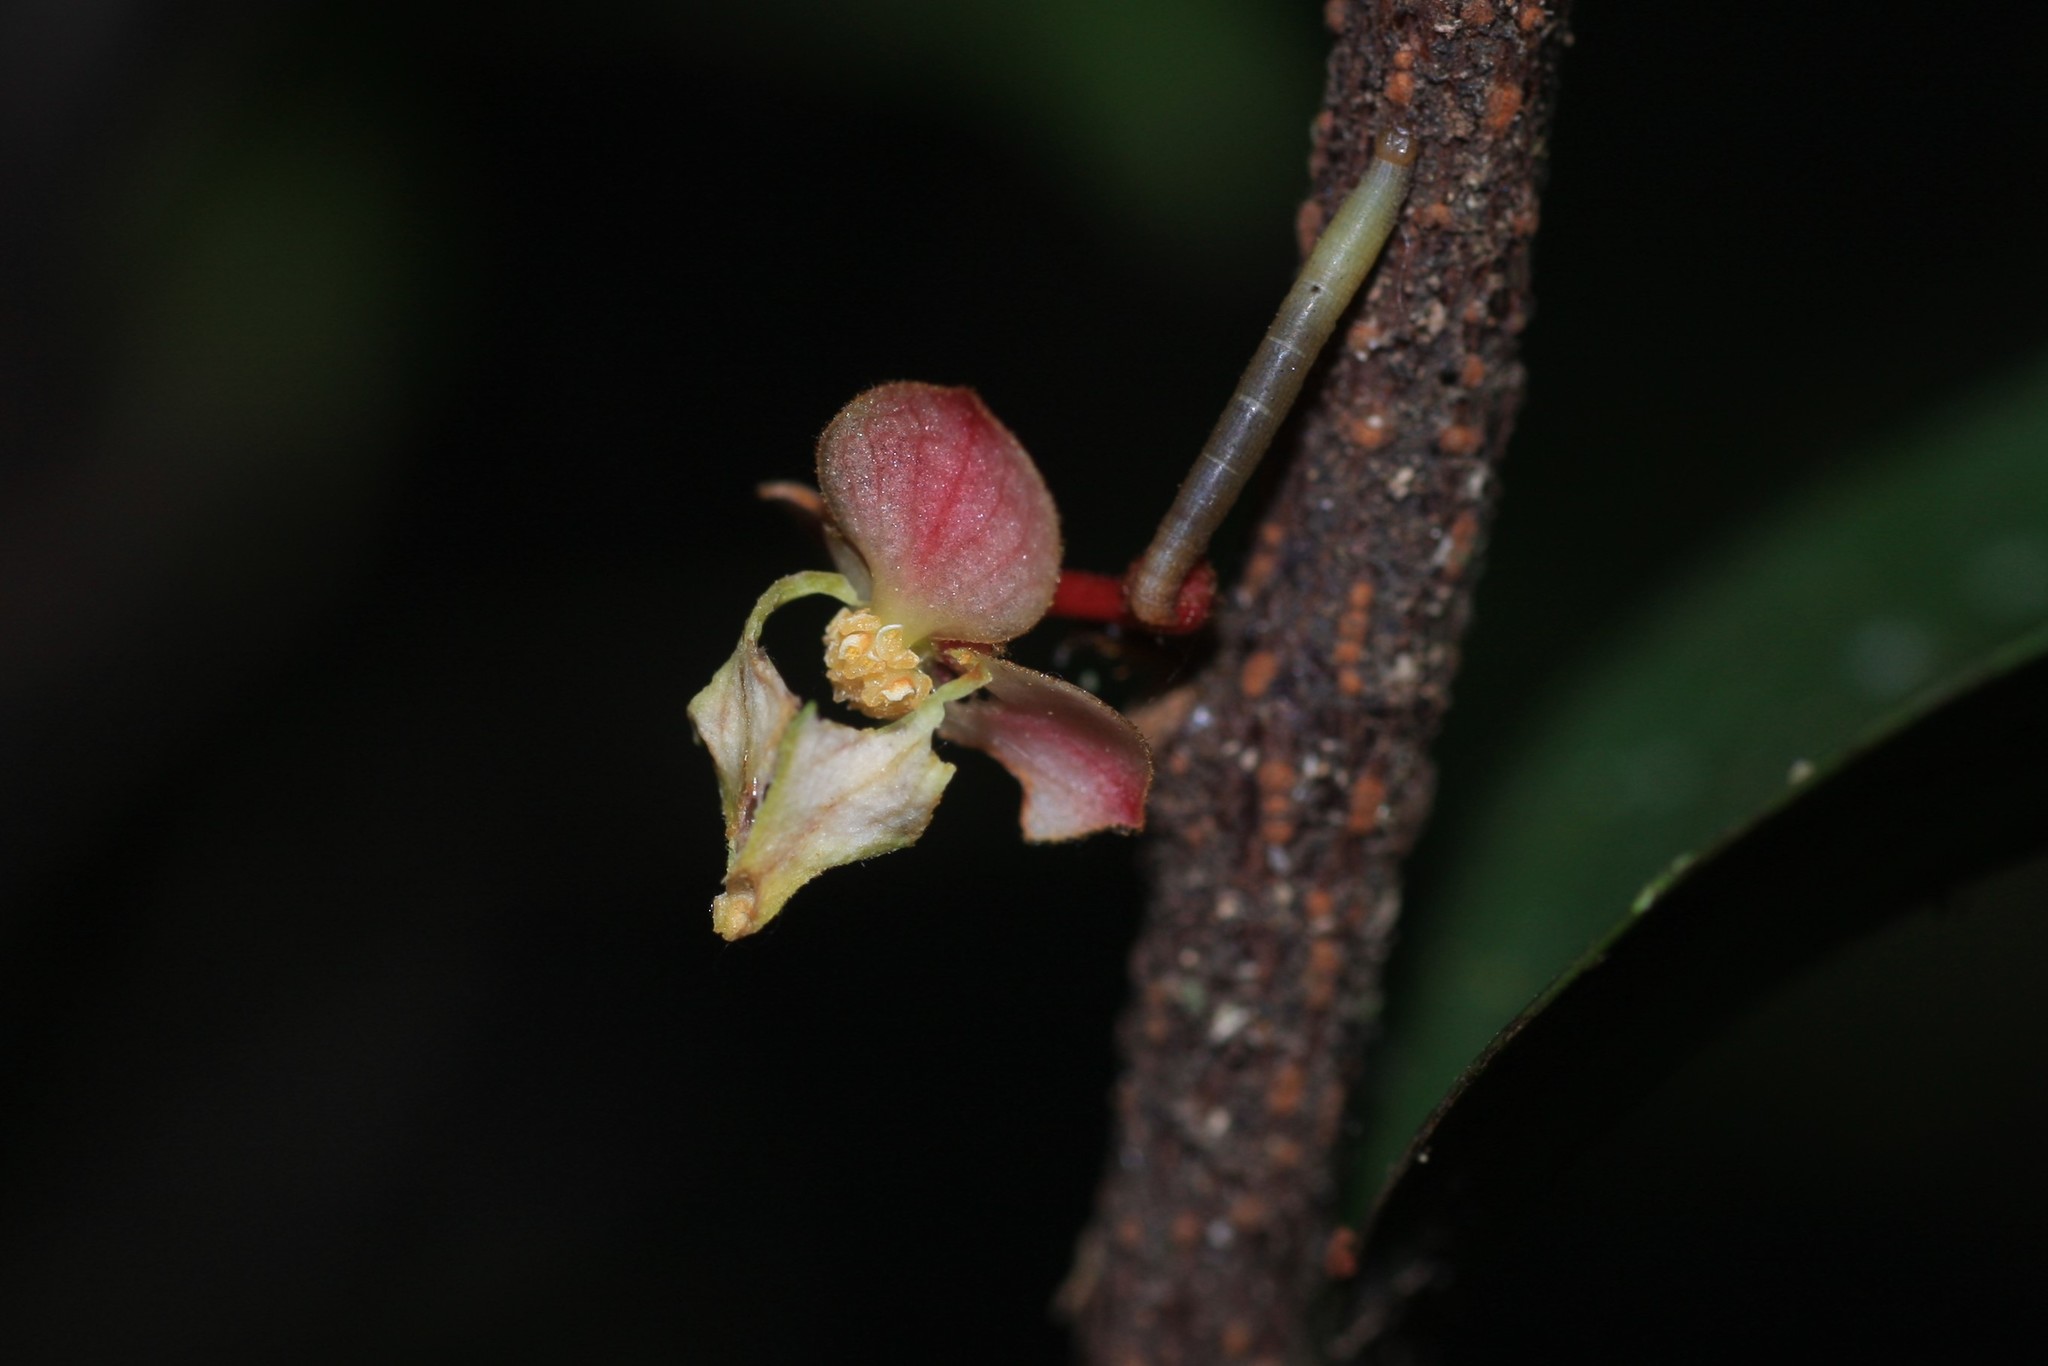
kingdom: Plantae
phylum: Tracheophyta
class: Magnoliopsida
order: Magnoliales
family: Annonaceae
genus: Orophea
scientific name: Orophea thomsonii
